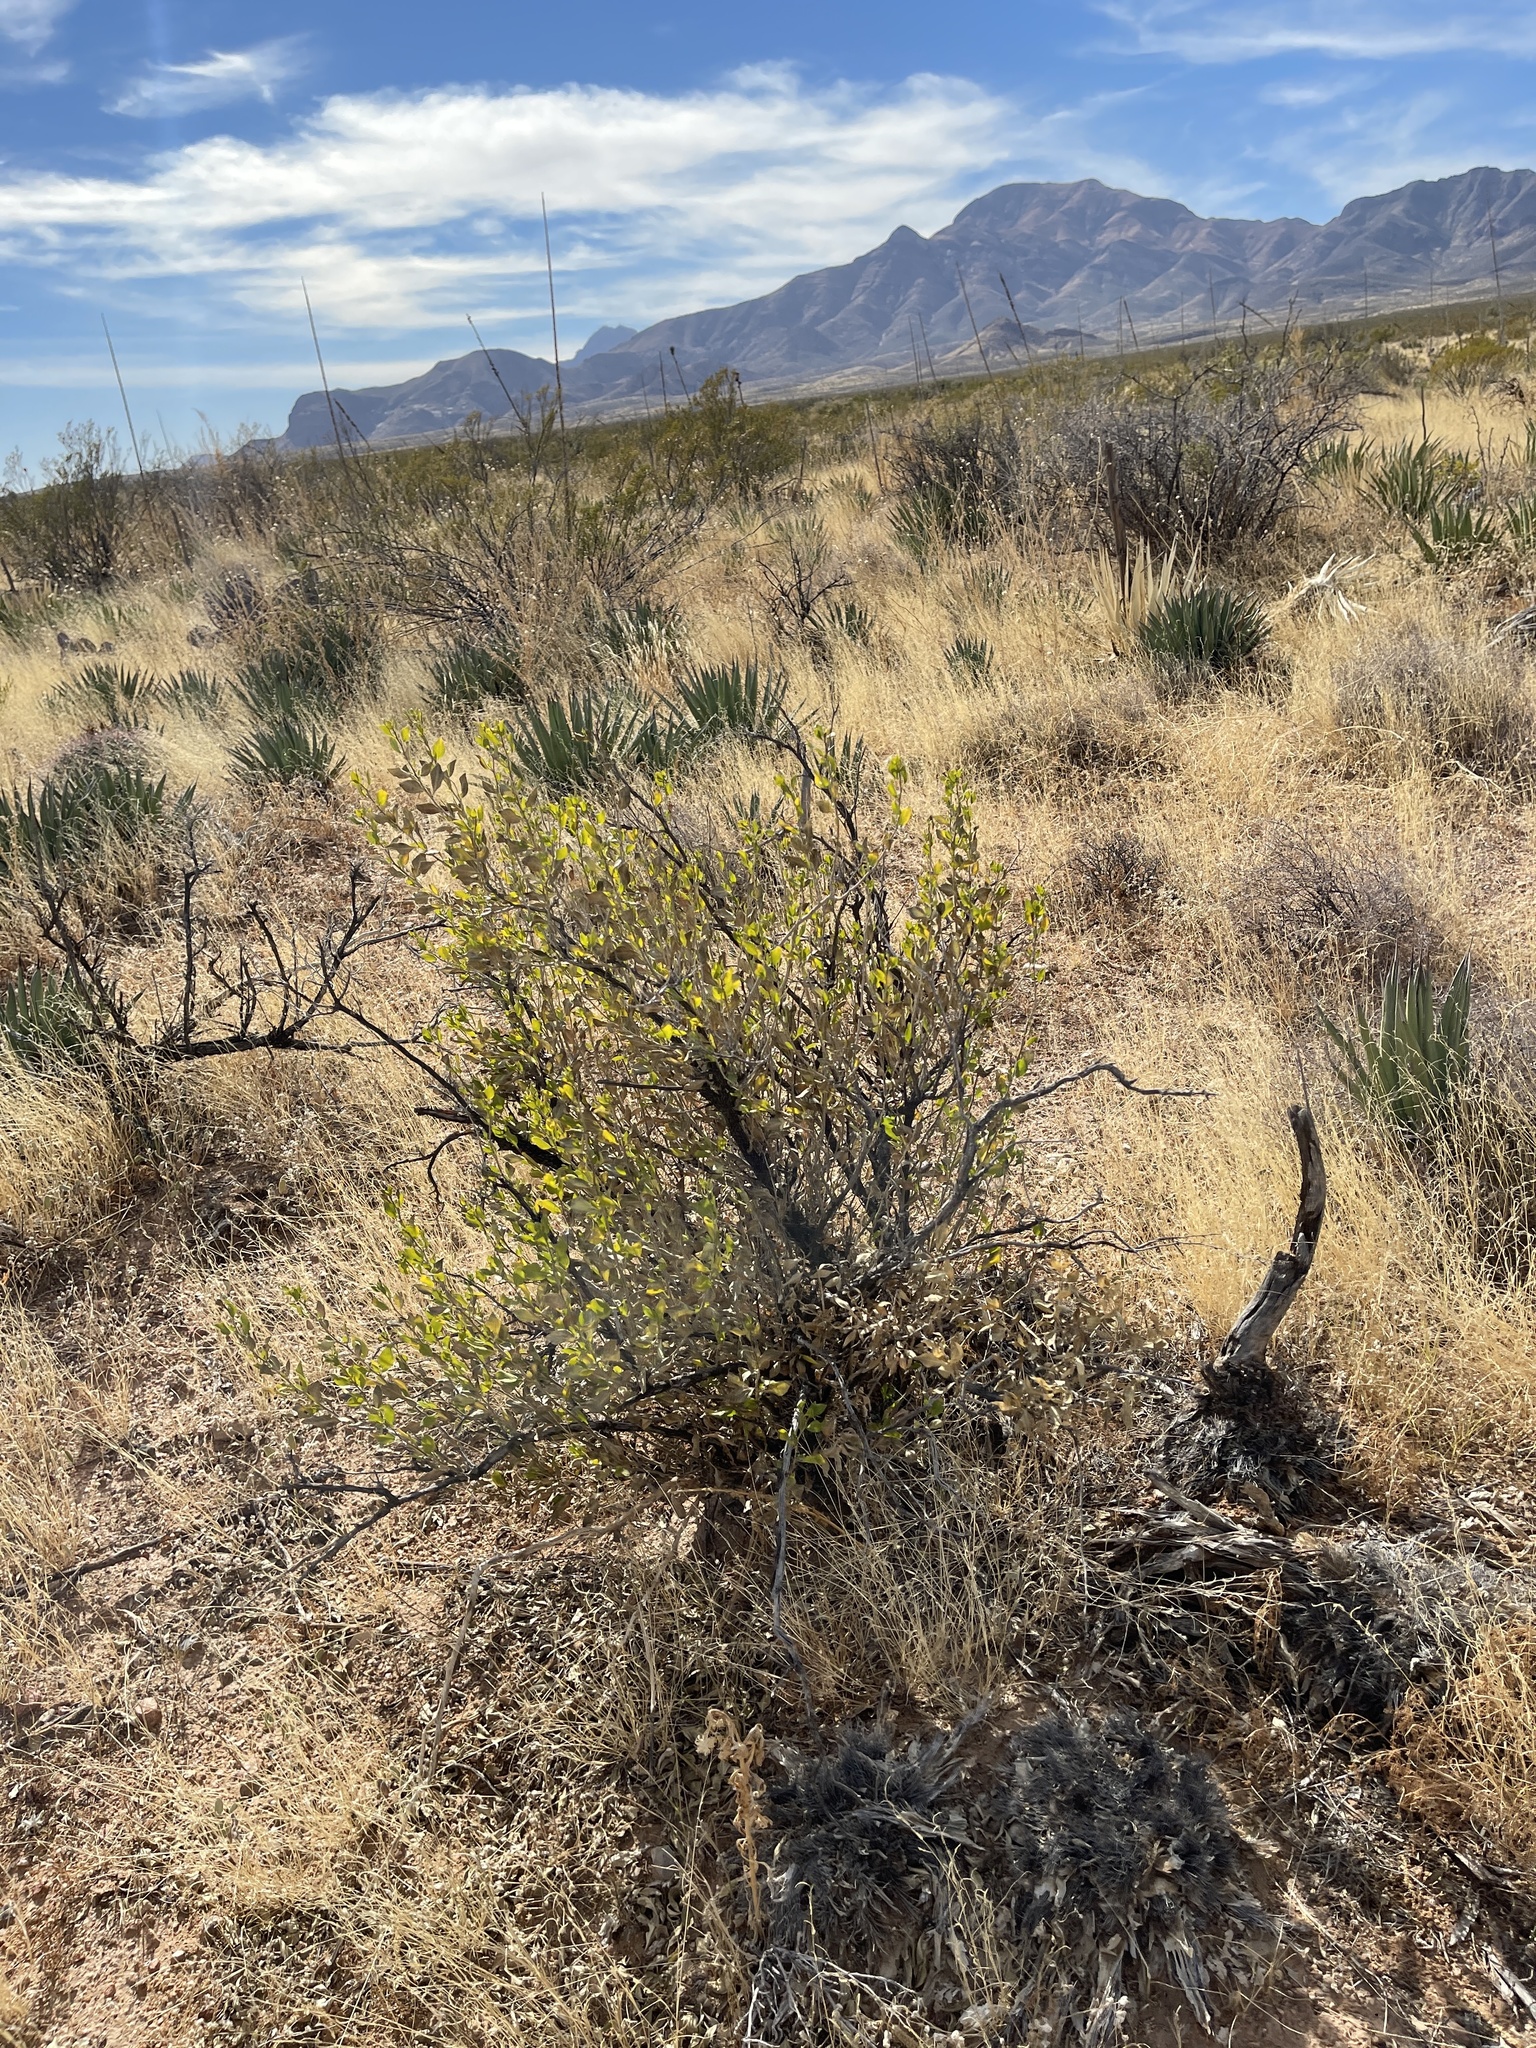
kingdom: Plantae
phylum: Tracheophyta
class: Magnoliopsida
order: Asterales
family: Asteraceae
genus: Flourensia
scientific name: Flourensia cernua
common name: Varnishbush
